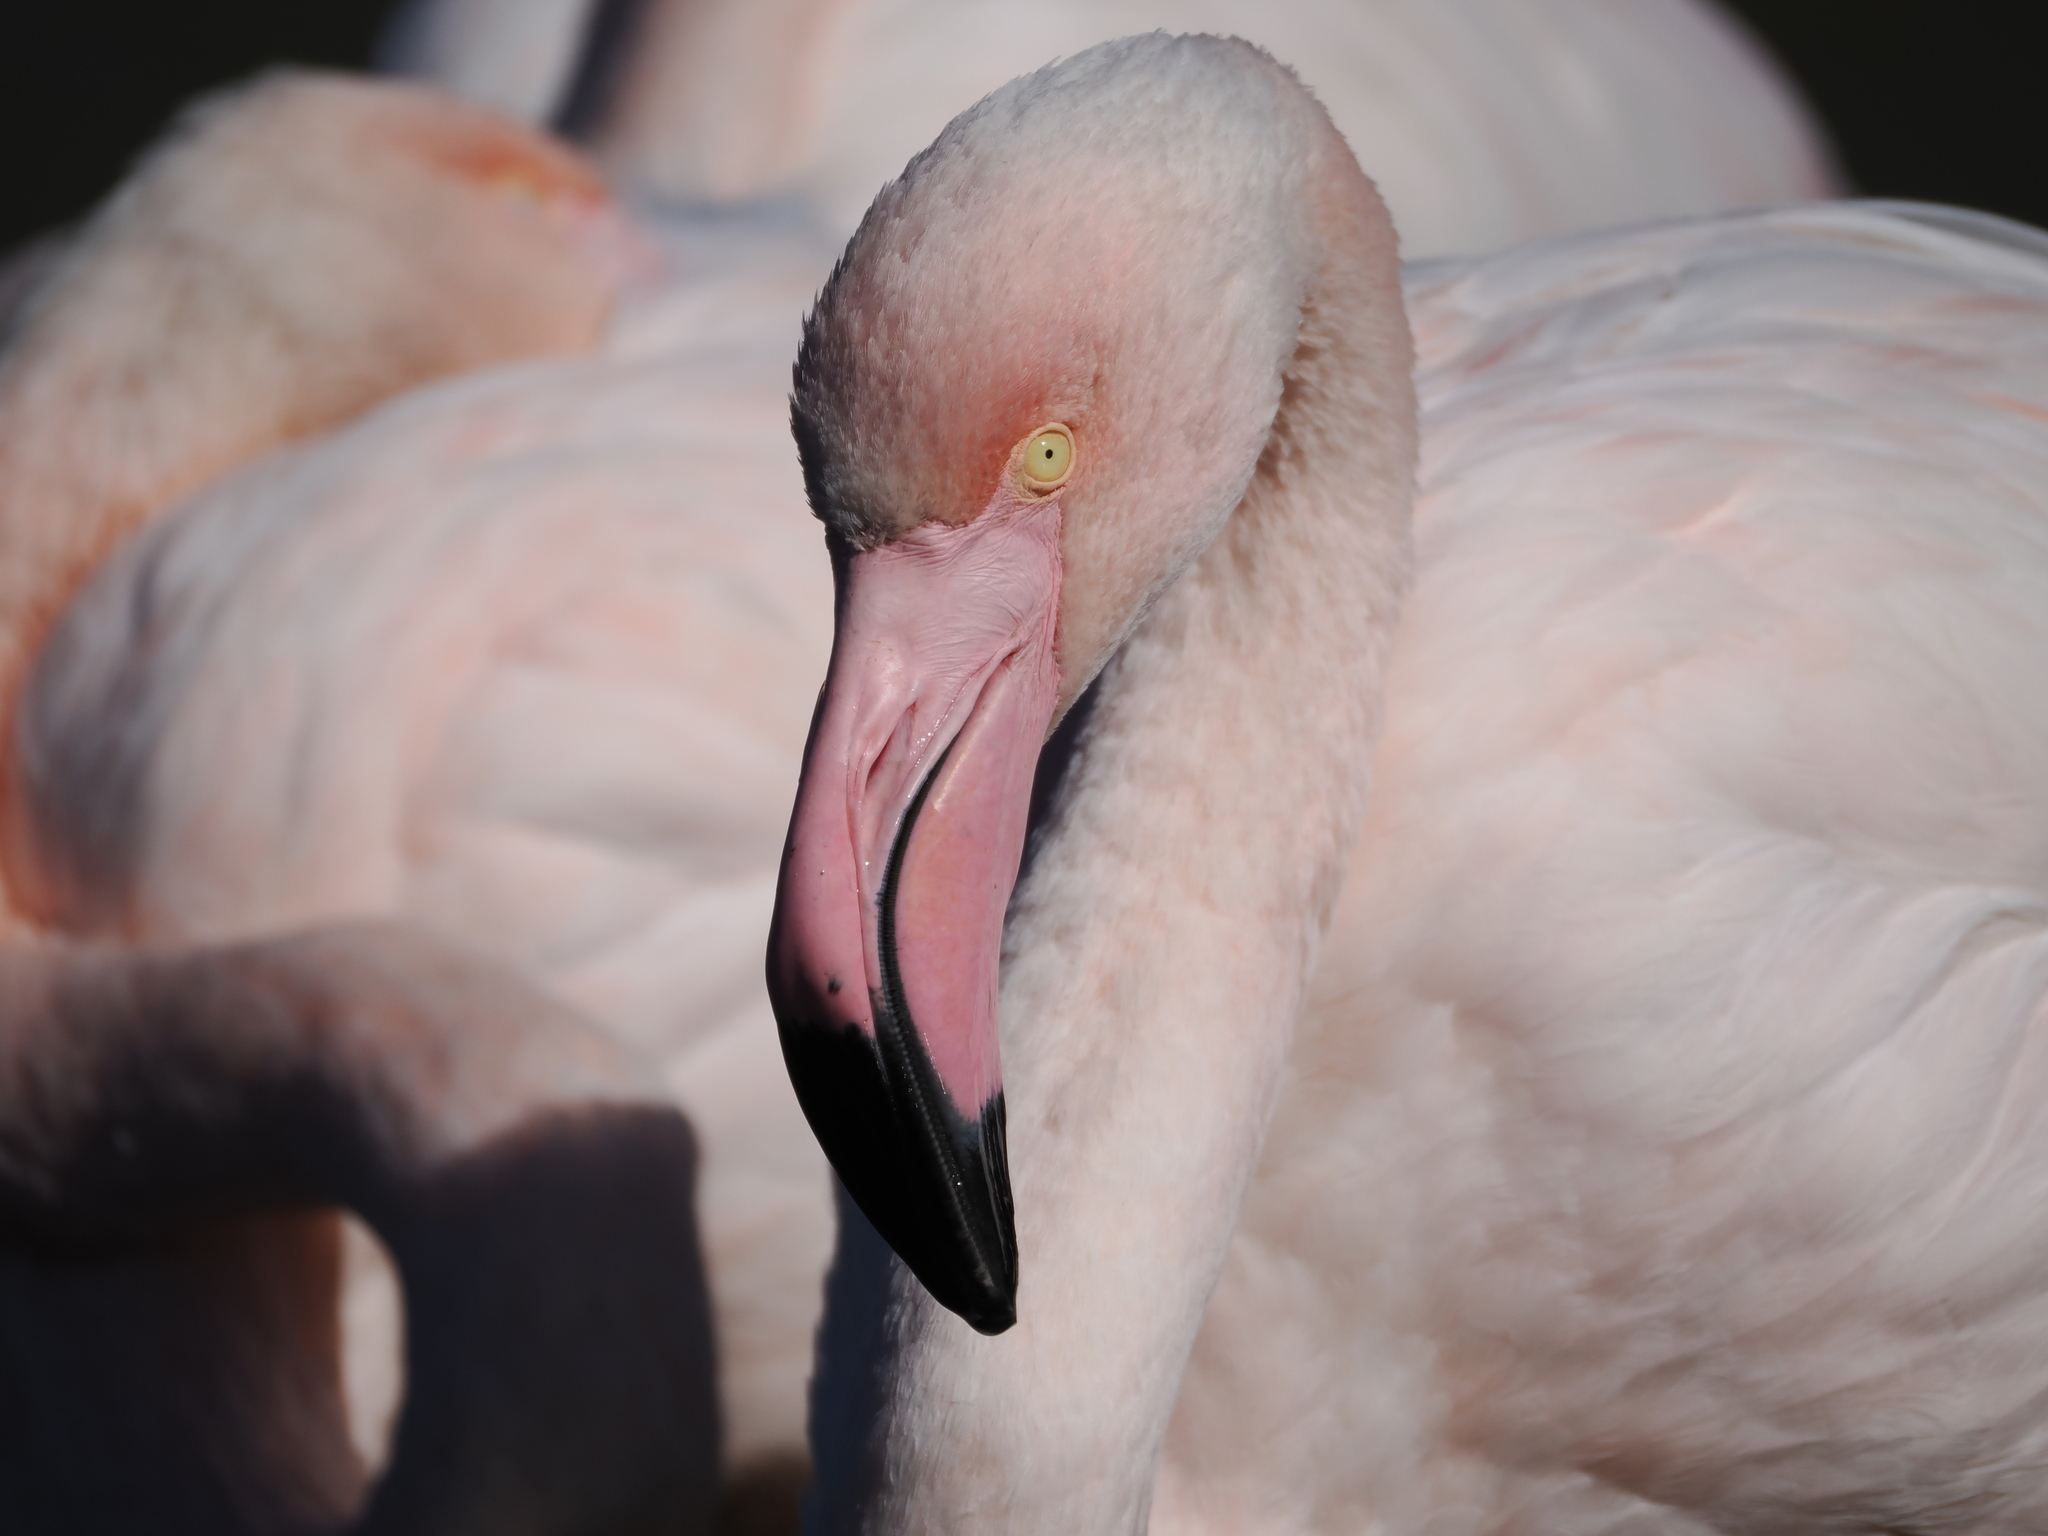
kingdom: Animalia
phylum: Chordata
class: Aves
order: Phoenicopteriformes
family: Phoenicopteridae
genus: Phoenicopterus
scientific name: Phoenicopterus roseus
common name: Greater flamingo
